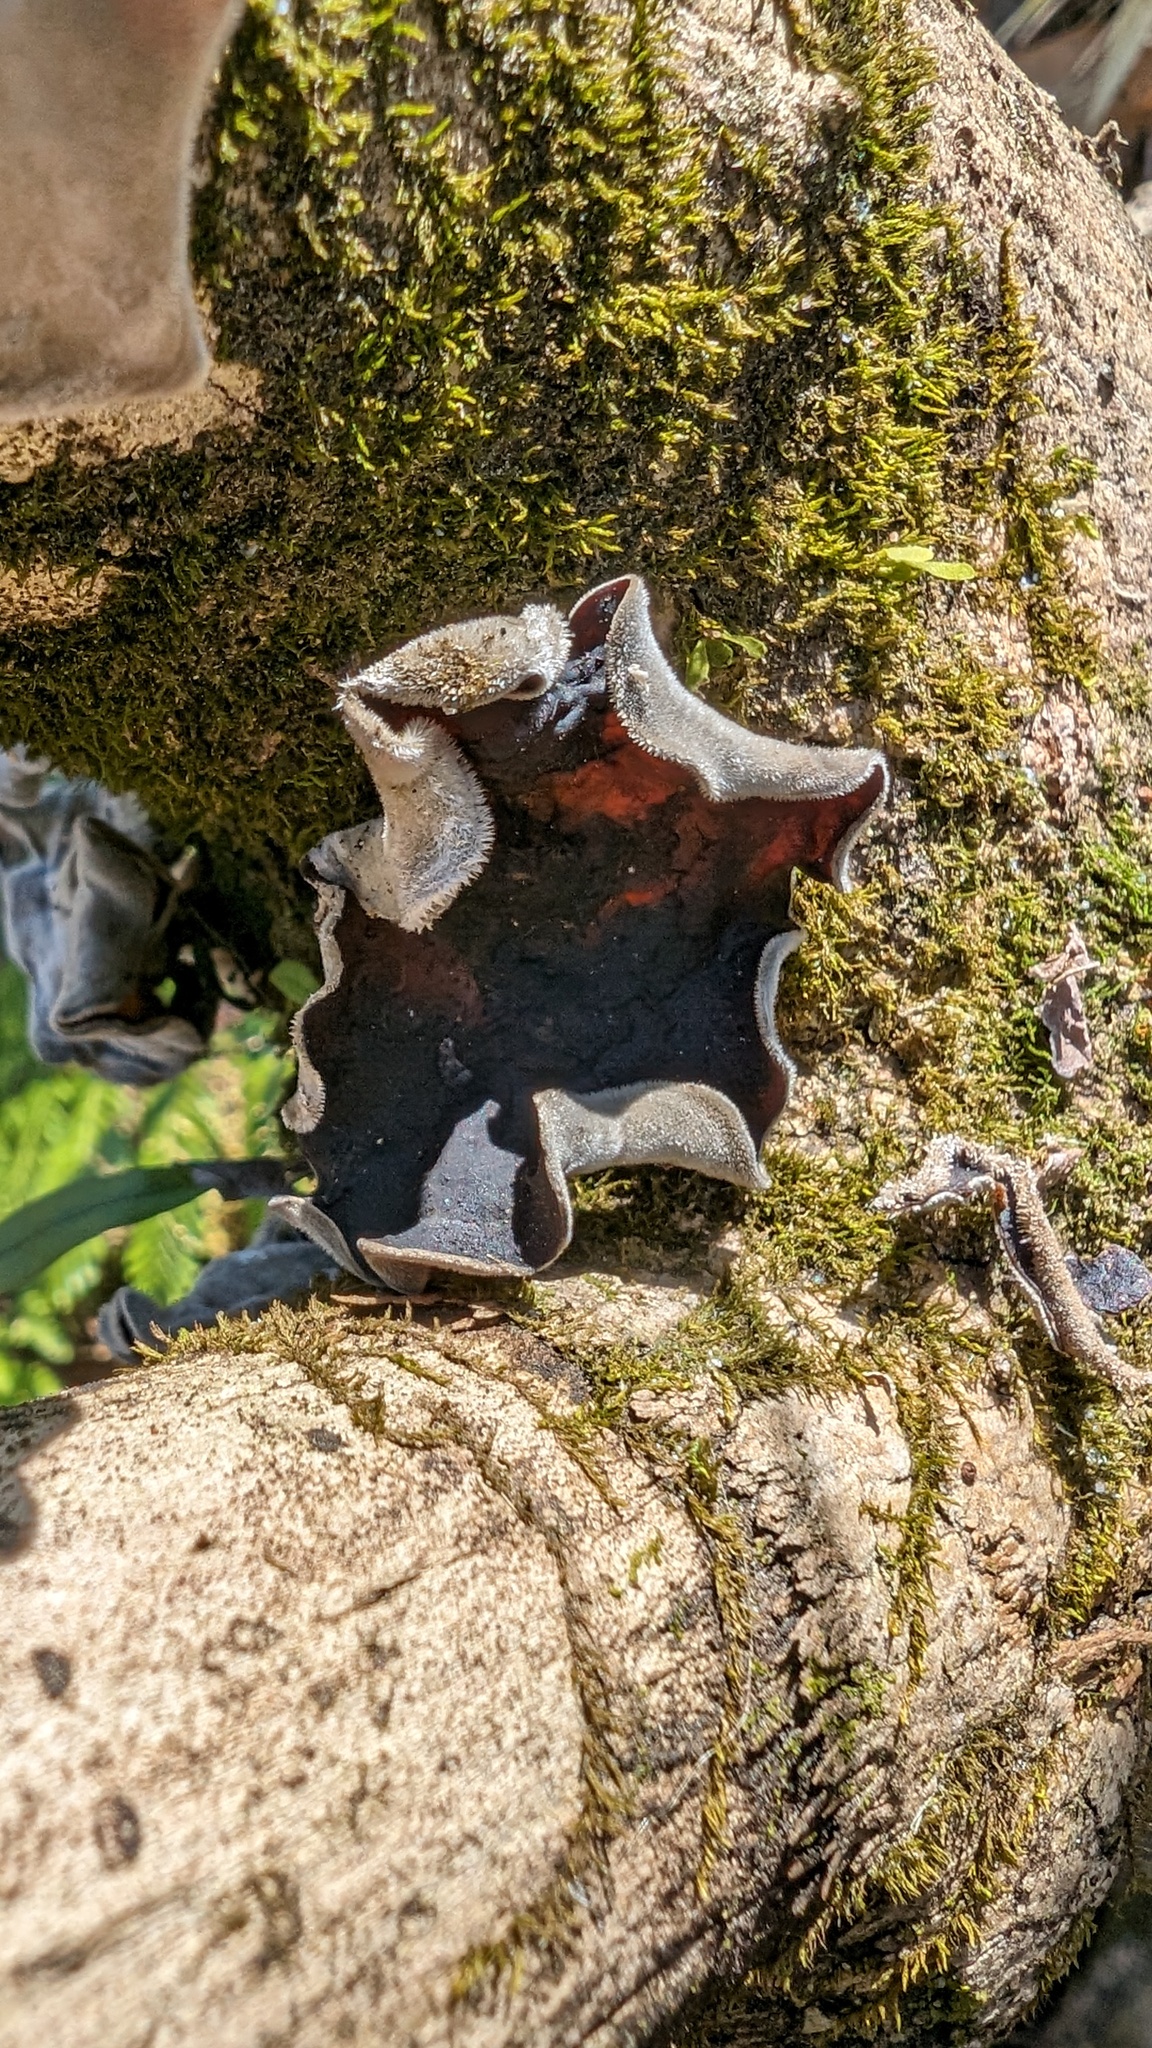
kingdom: Fungi
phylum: Basidiomycota
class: Agaricomycetes
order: Auriculariales
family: Auriculariaceae
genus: Auricularia
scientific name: Auricularia nigricans
